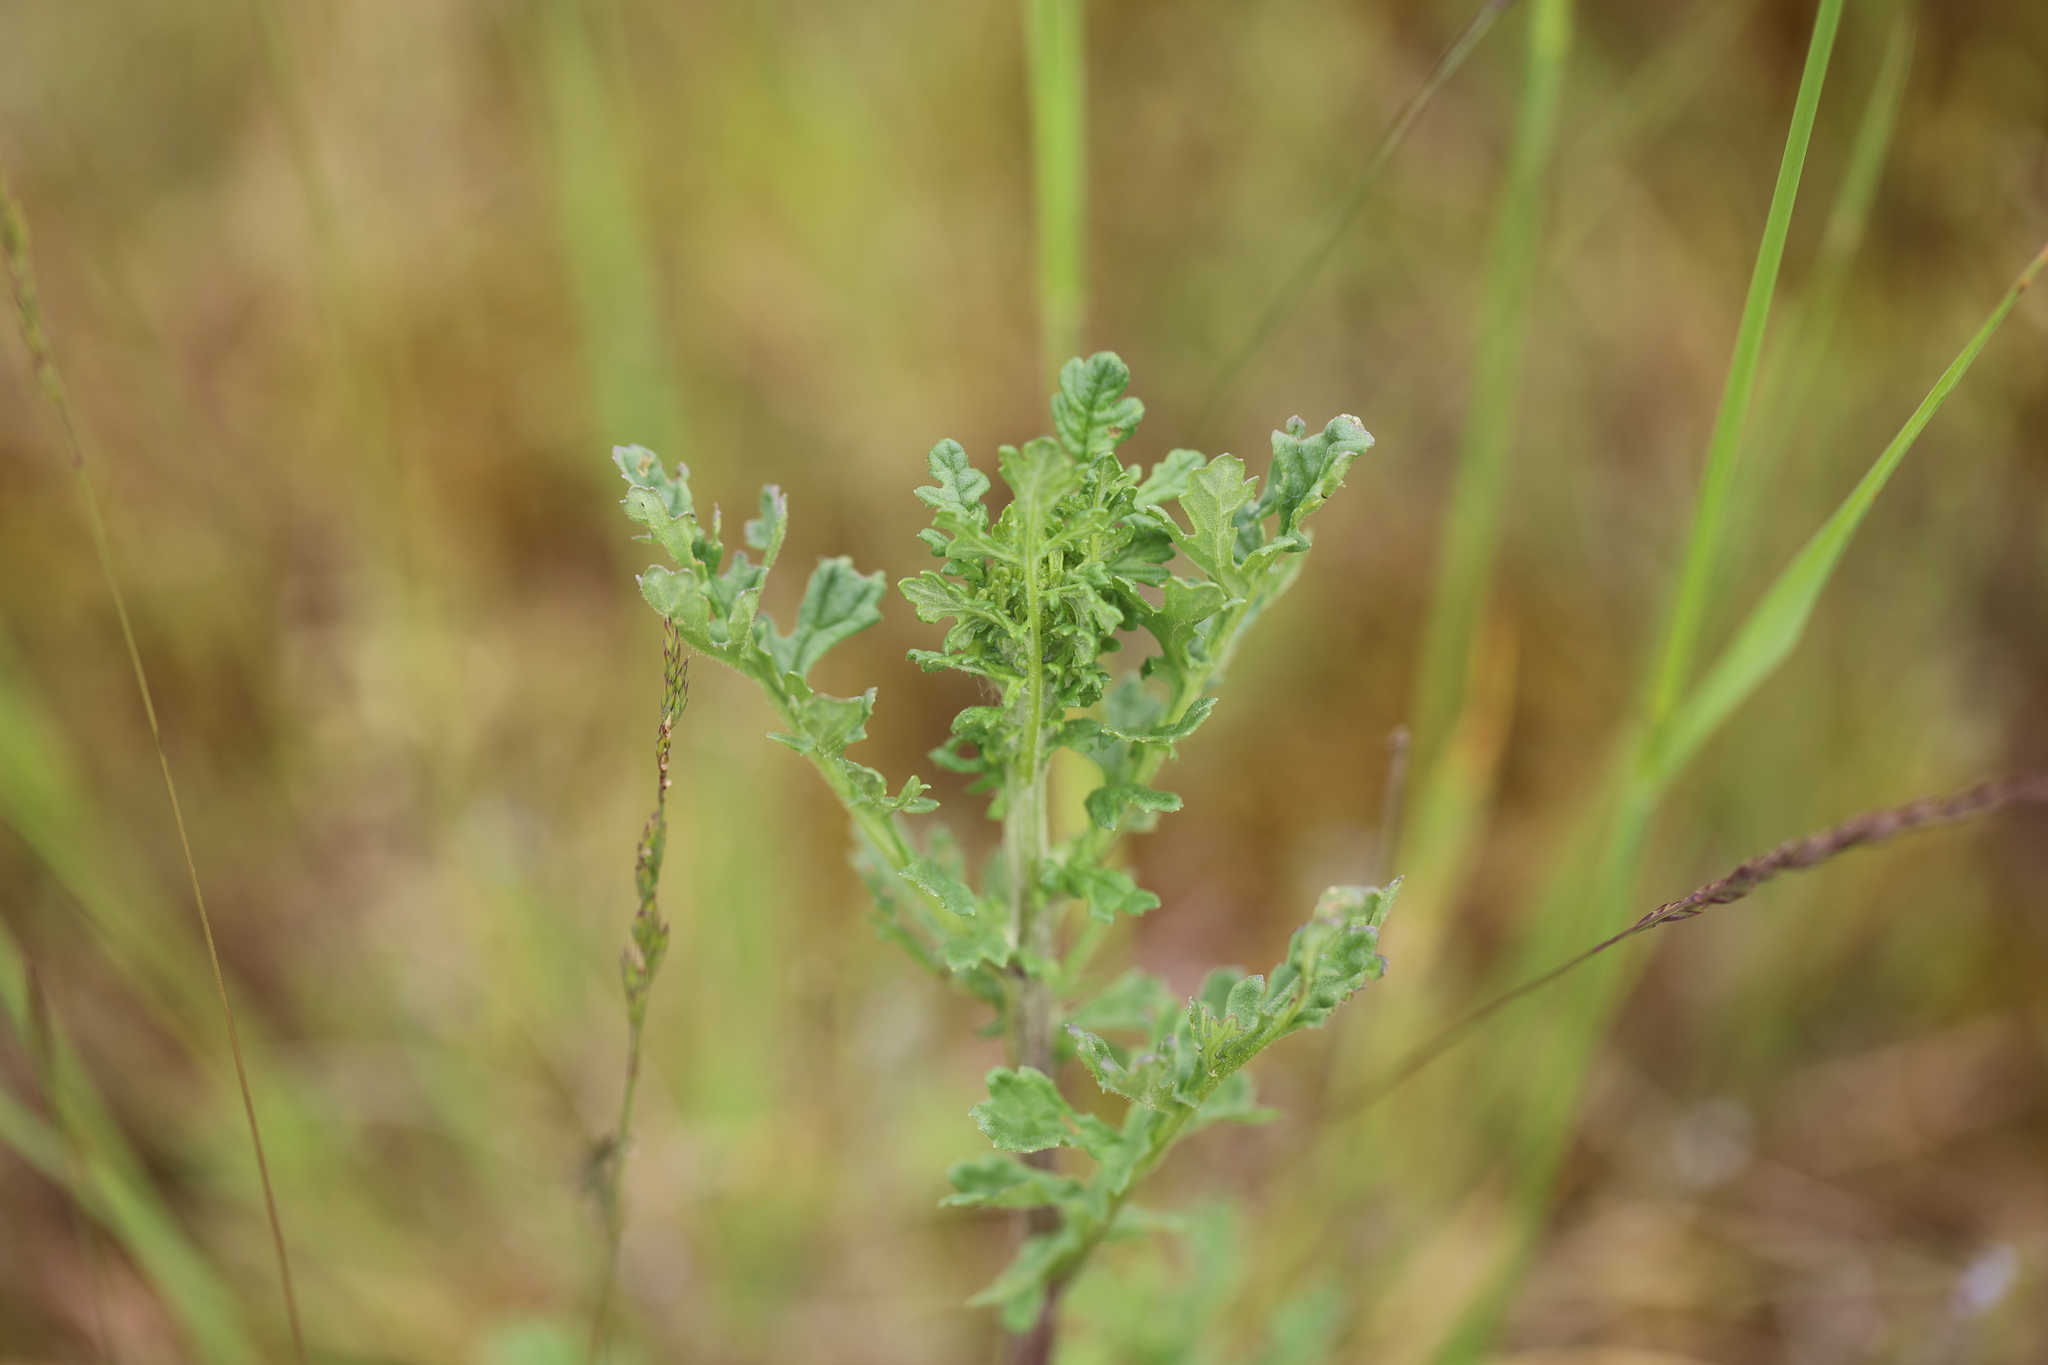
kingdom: Plantae
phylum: Tracheophyta
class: Magnoliopsida
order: Asterales
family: Asteraceae
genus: Jacobaea
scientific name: Jacobaea vulgaris
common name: Stinking willie
